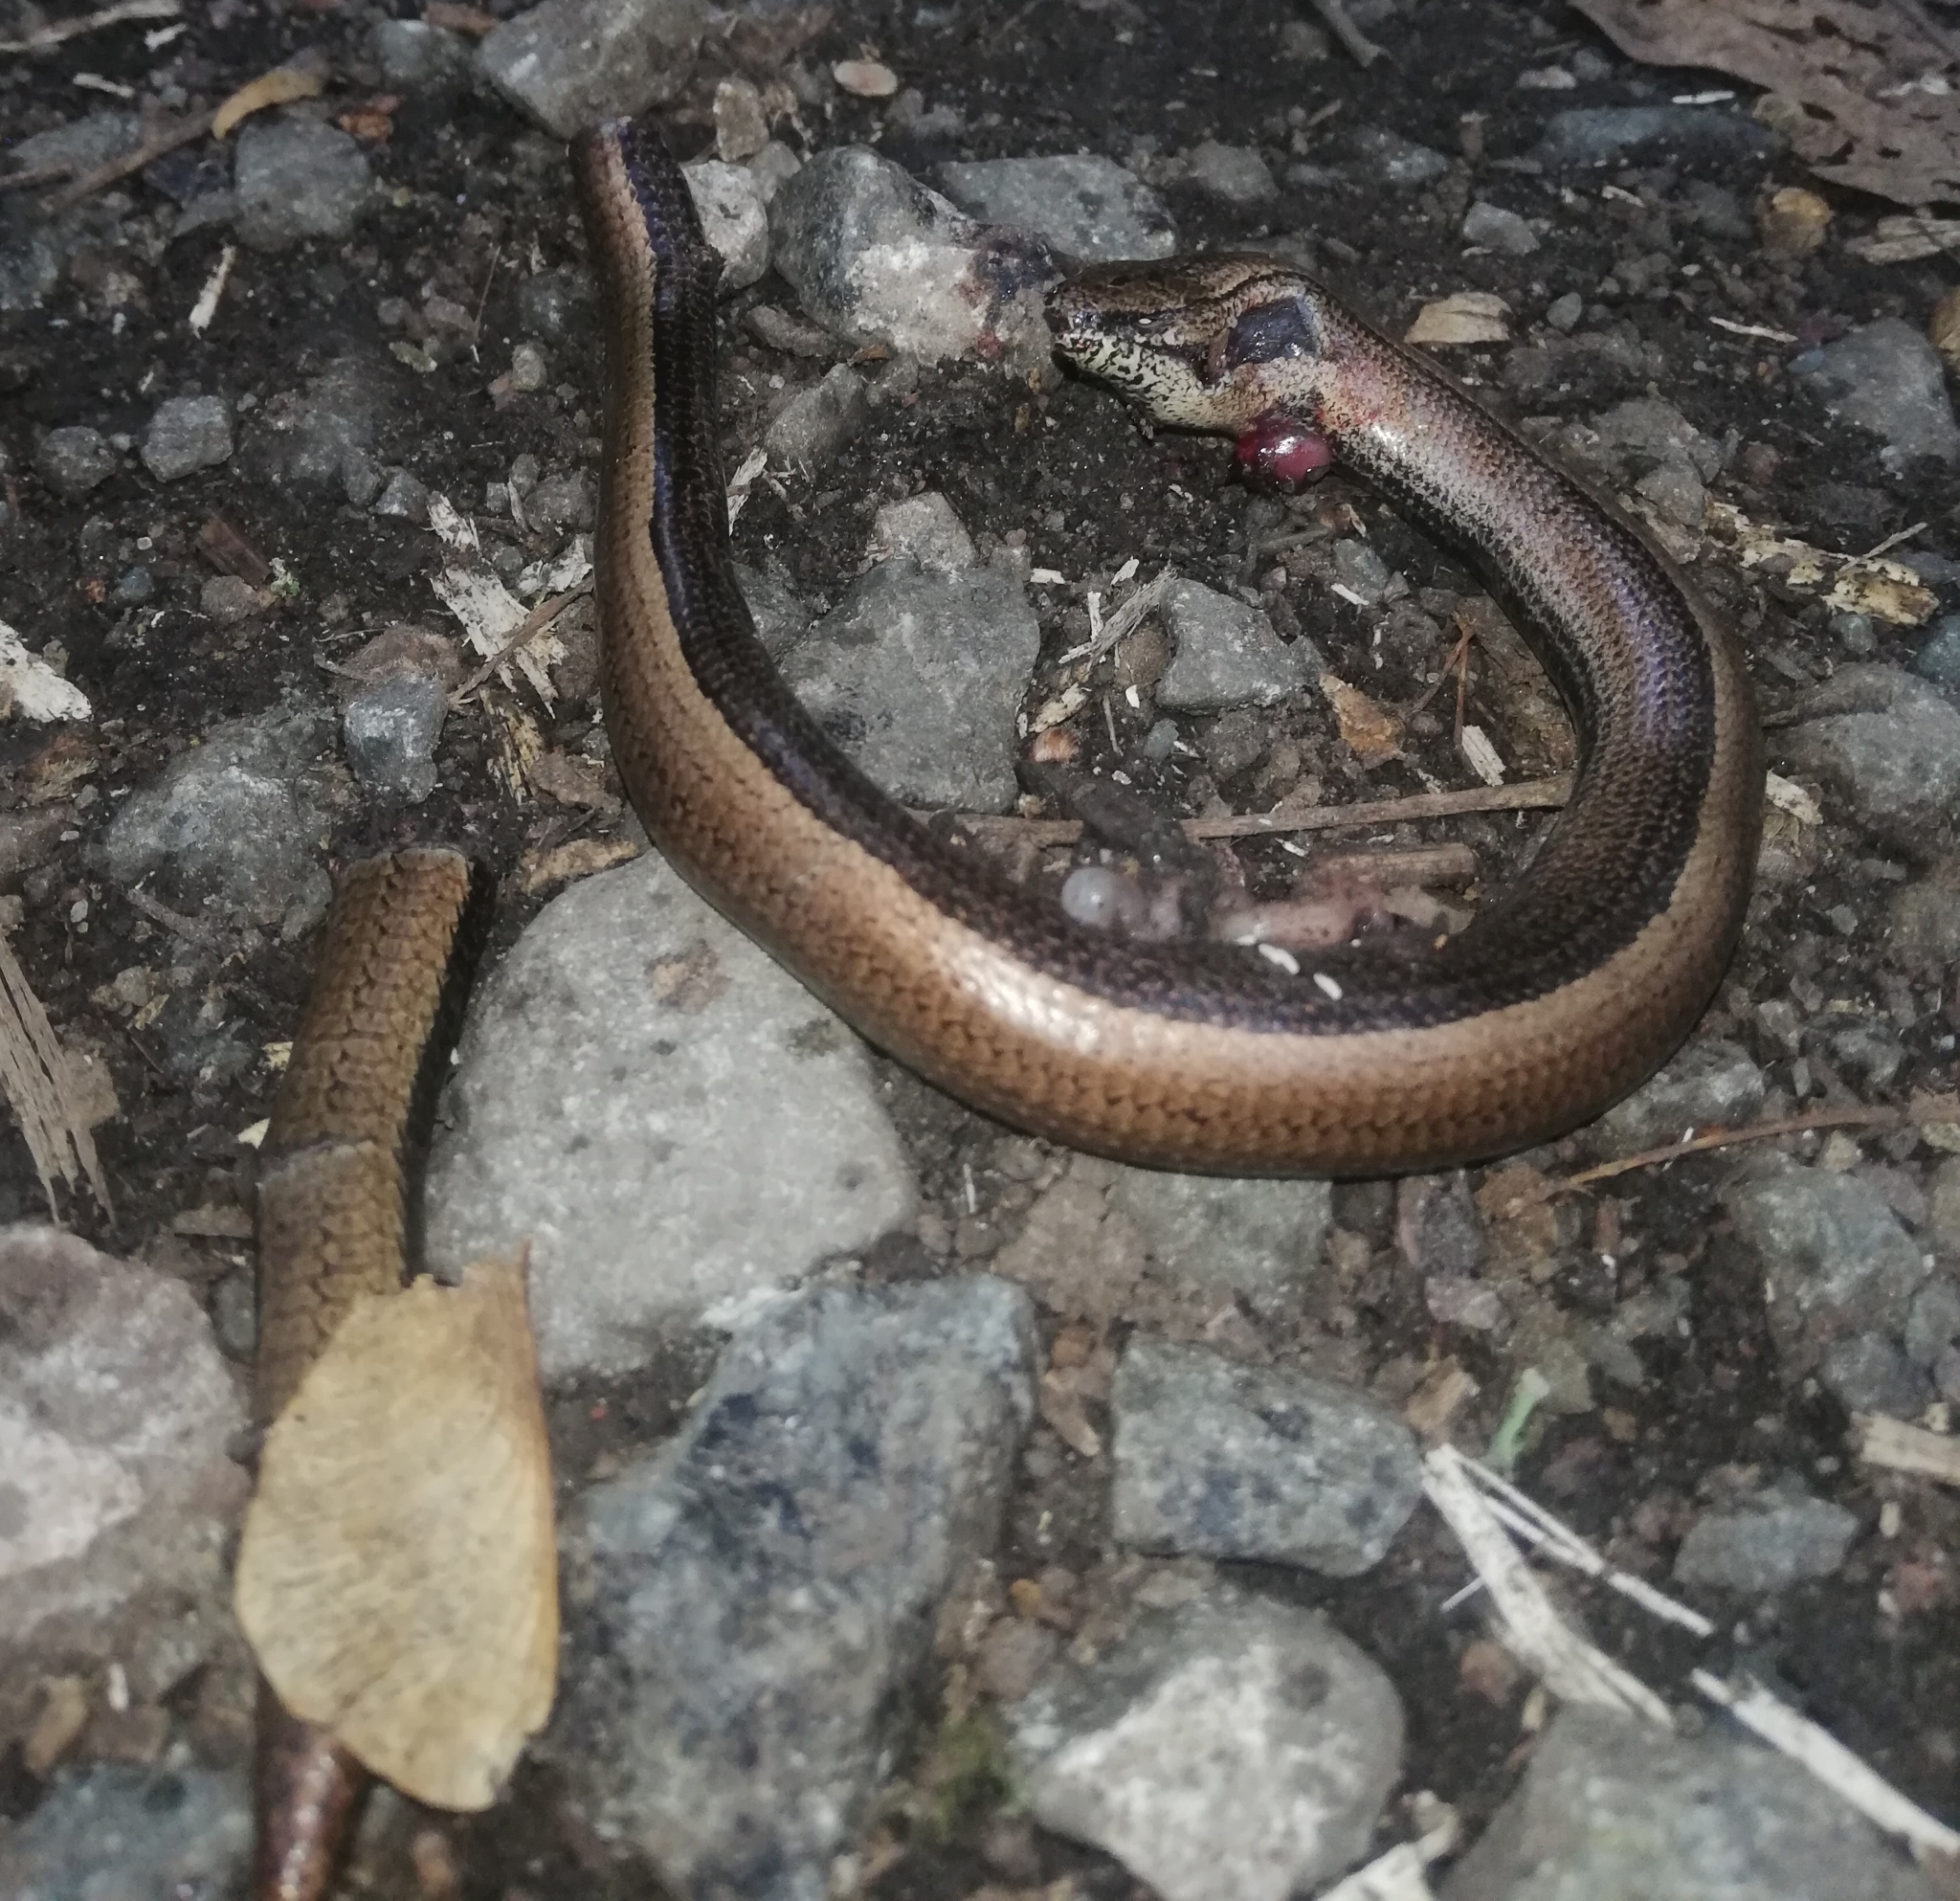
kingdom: Animalia
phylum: Chordata
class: Squamata
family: Anguidae
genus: Anguis
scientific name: Anguis fragilis
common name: Slow worm
